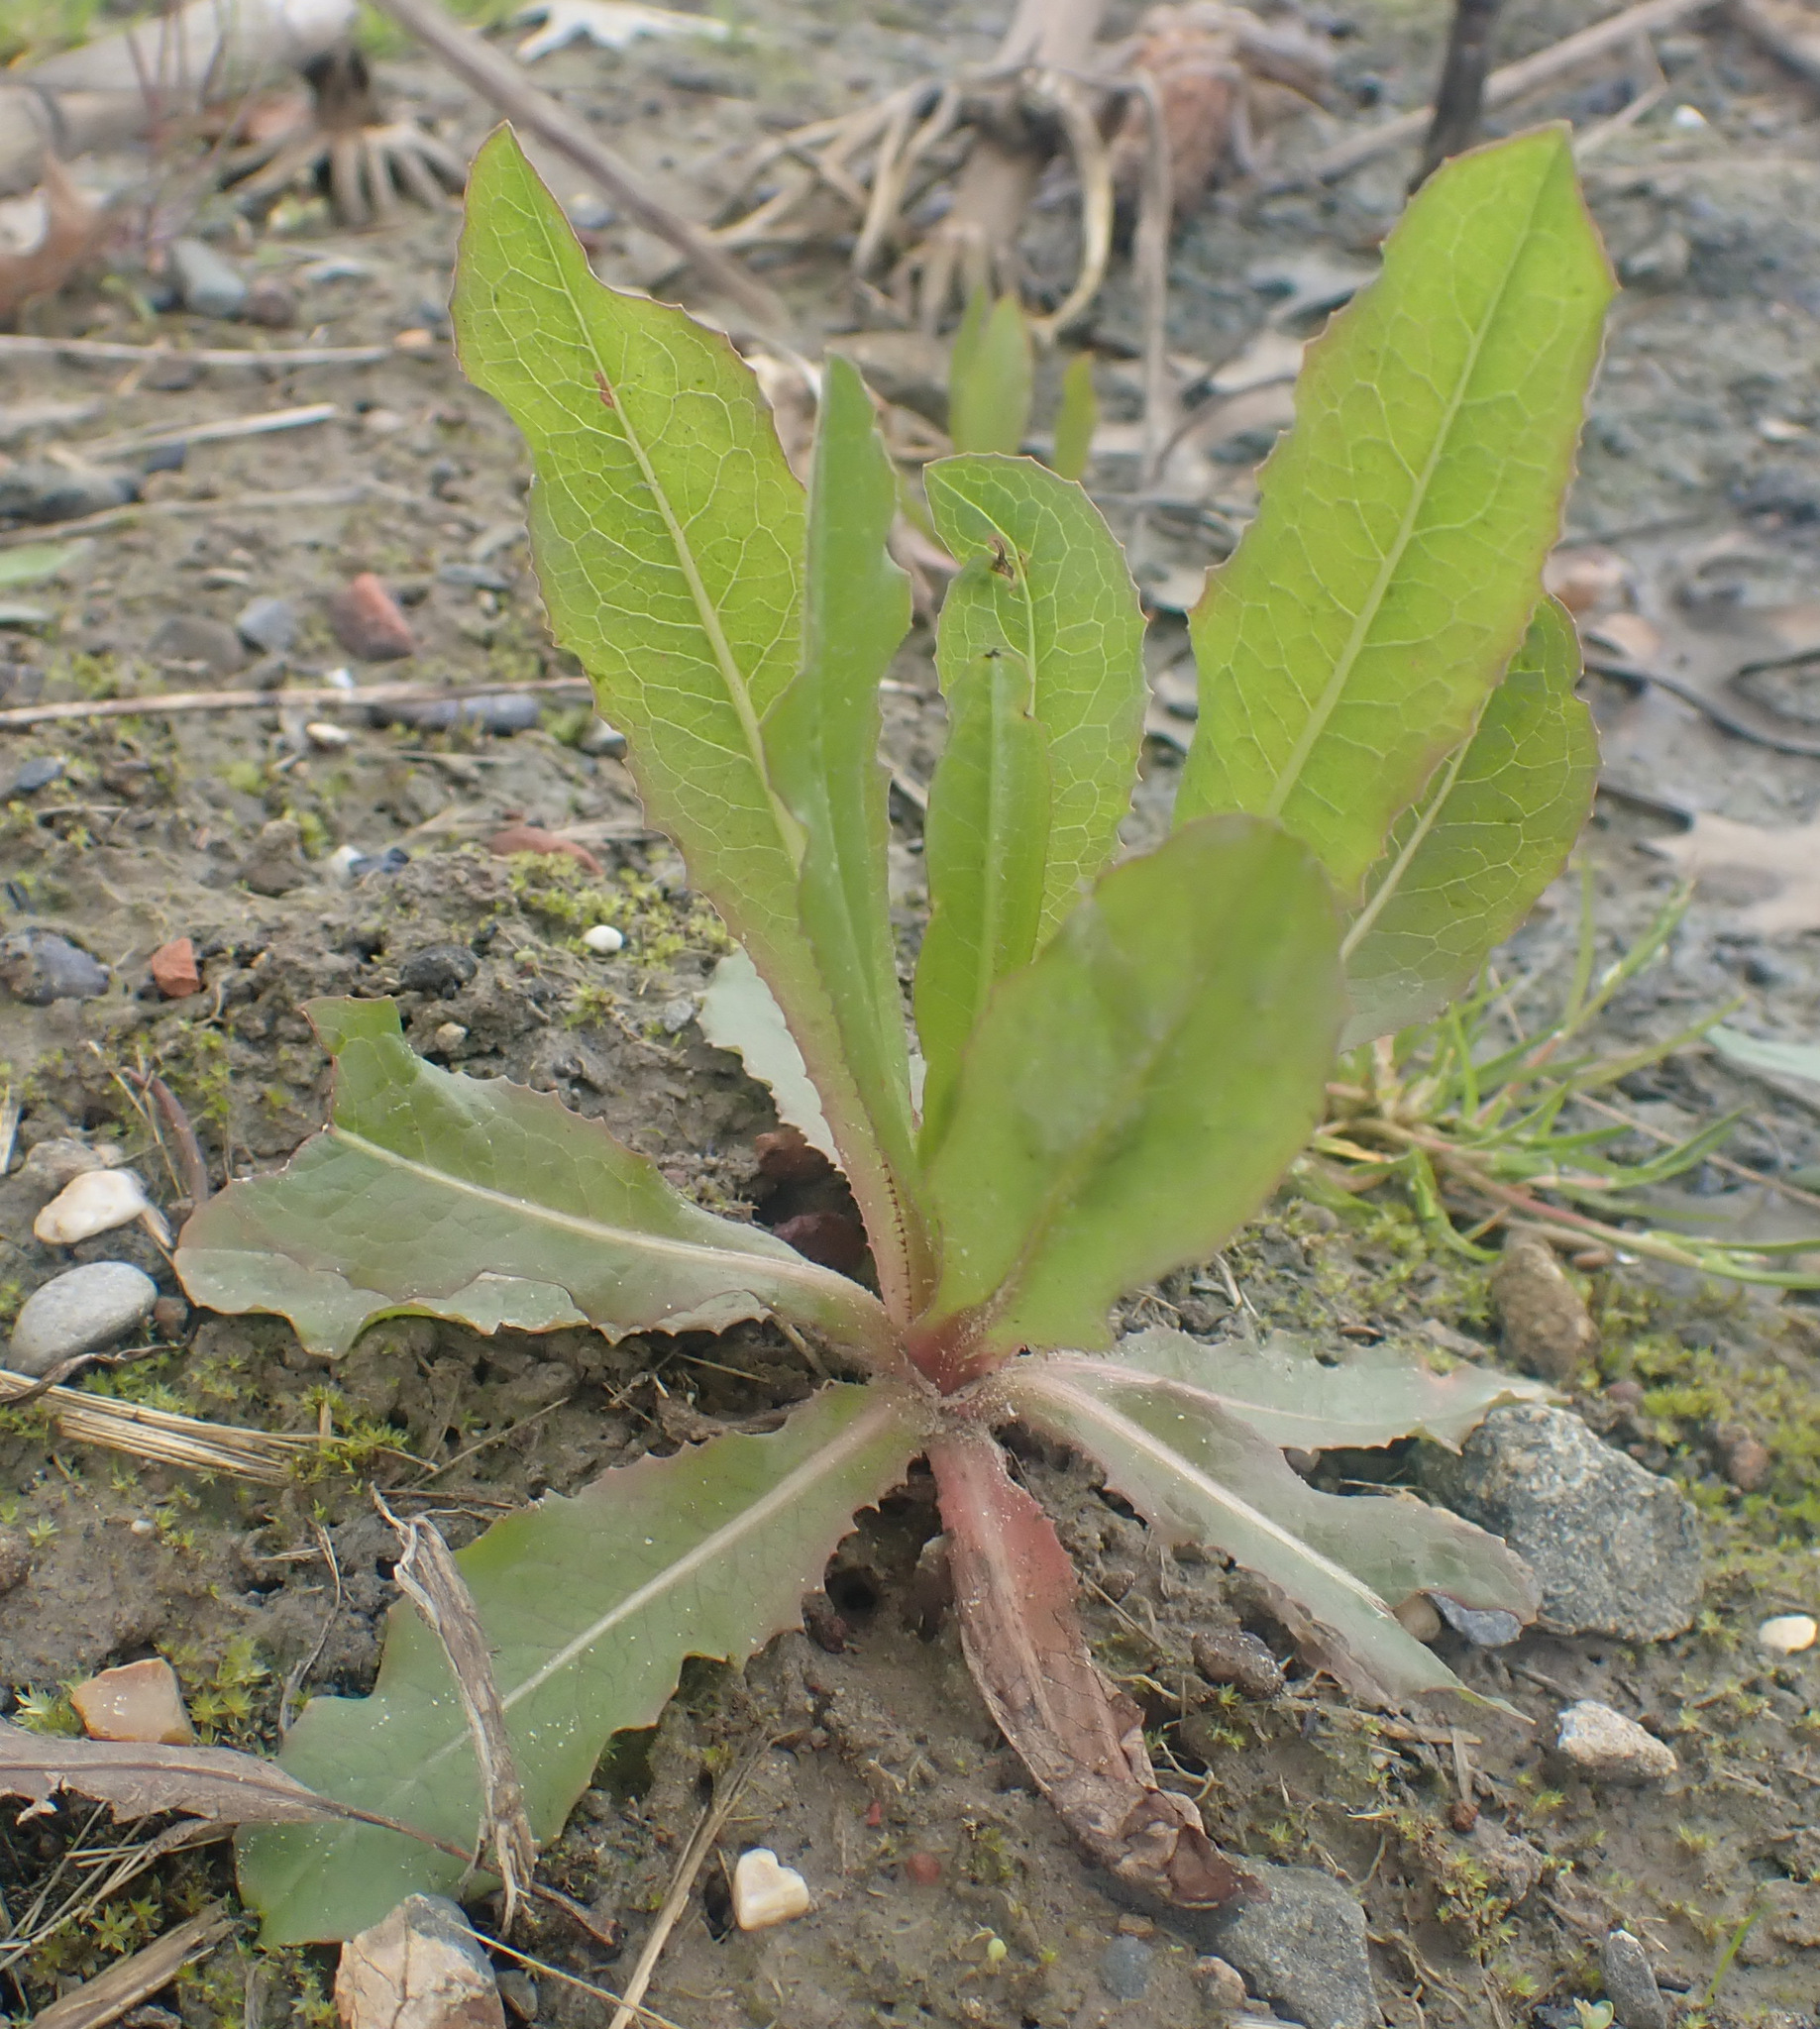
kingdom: Plantae
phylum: Tracheophyta
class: Magnoliopsida
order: Asterales
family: Asteraceae
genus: Lactuca
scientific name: Lactuca serriola
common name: Prickly lettuce
